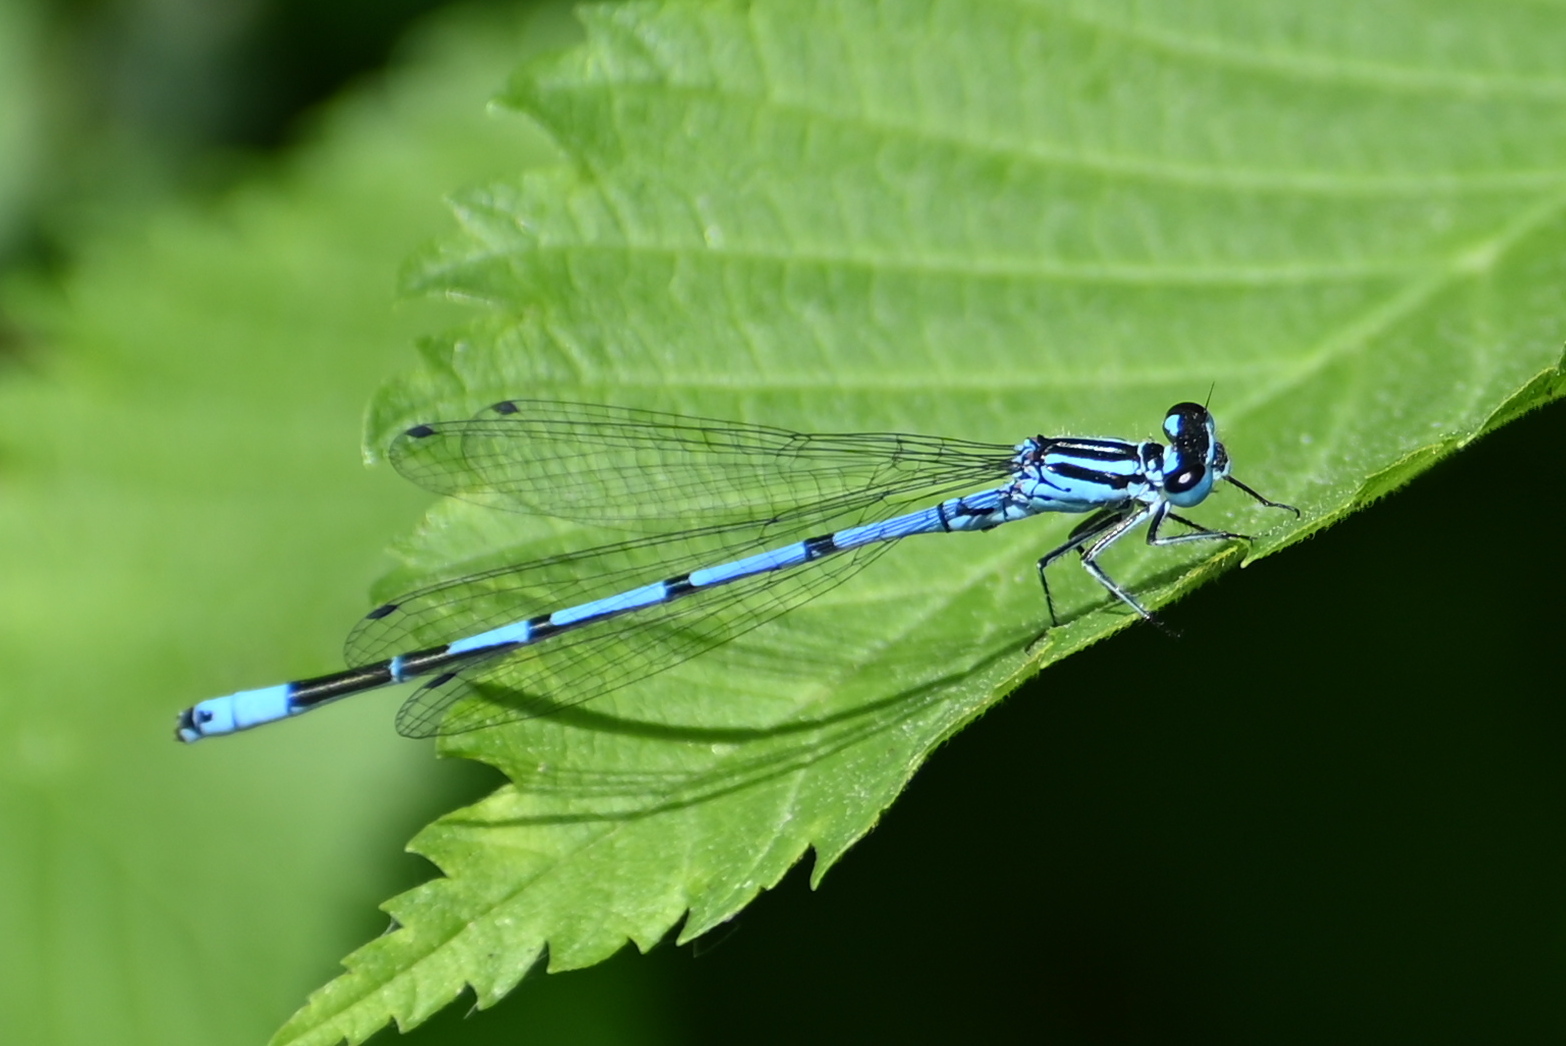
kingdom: Animalia
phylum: Arthropoda
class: Insecta
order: Odonata
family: Coenagrionidae
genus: Coenagrion
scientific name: Coenagrion puella
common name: Azure damselfly
